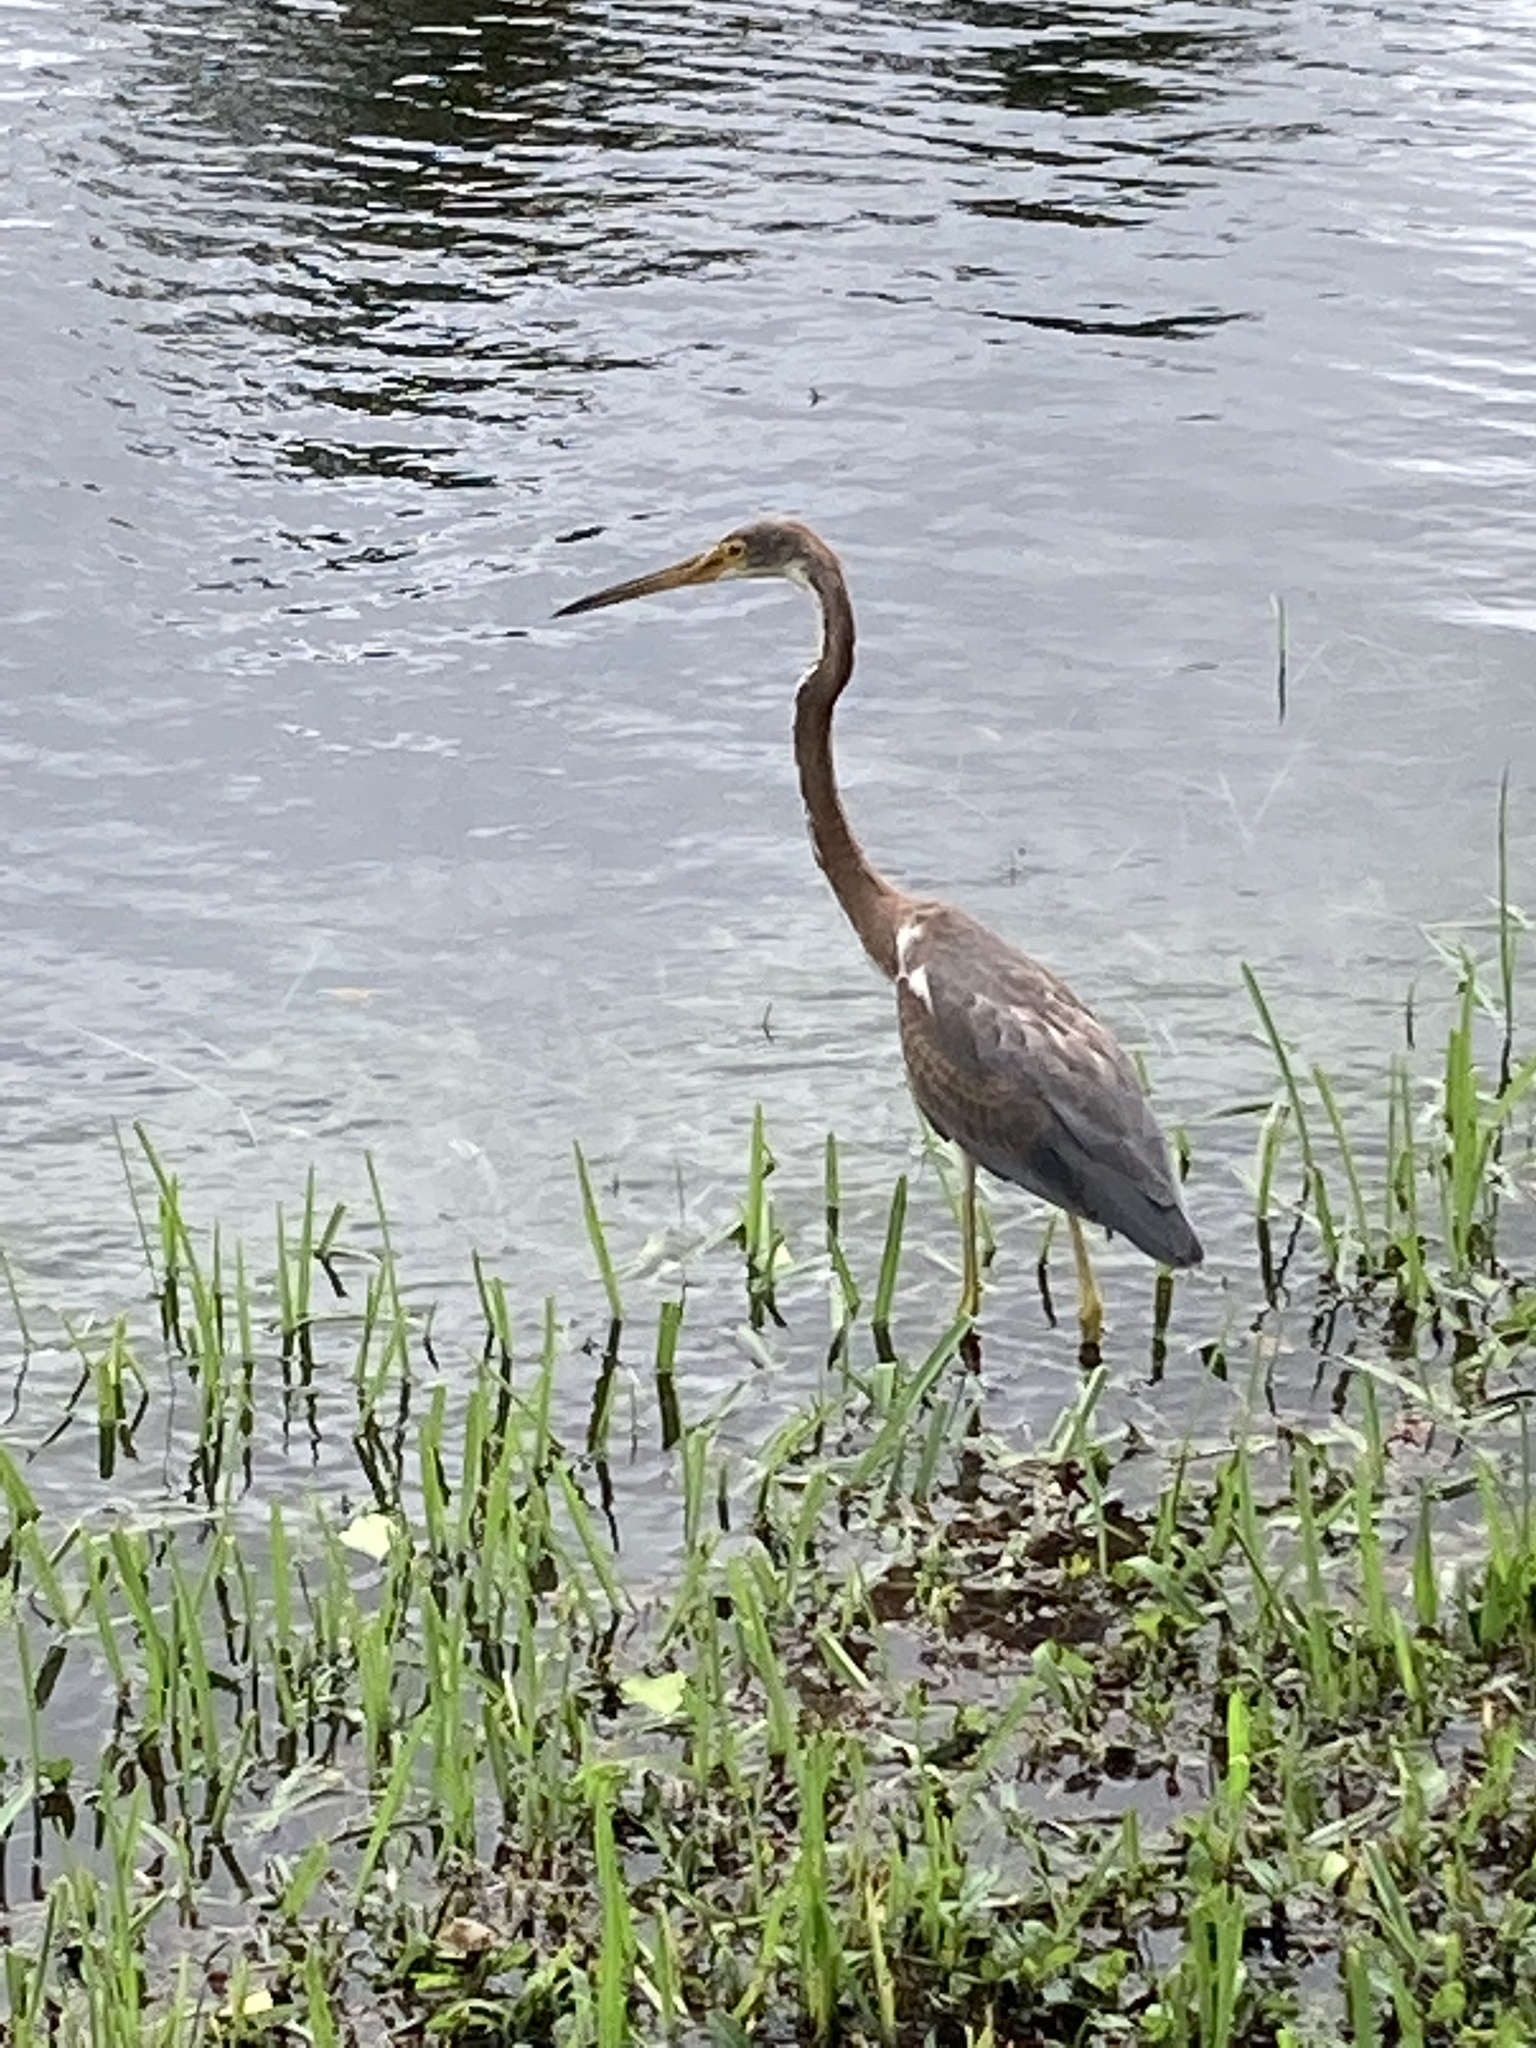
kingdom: Animalia
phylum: Chordata
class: Aves
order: Pelecaniformes
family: Ardeidae
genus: Egretta
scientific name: Egretta tricolor
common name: Tricolored heron
